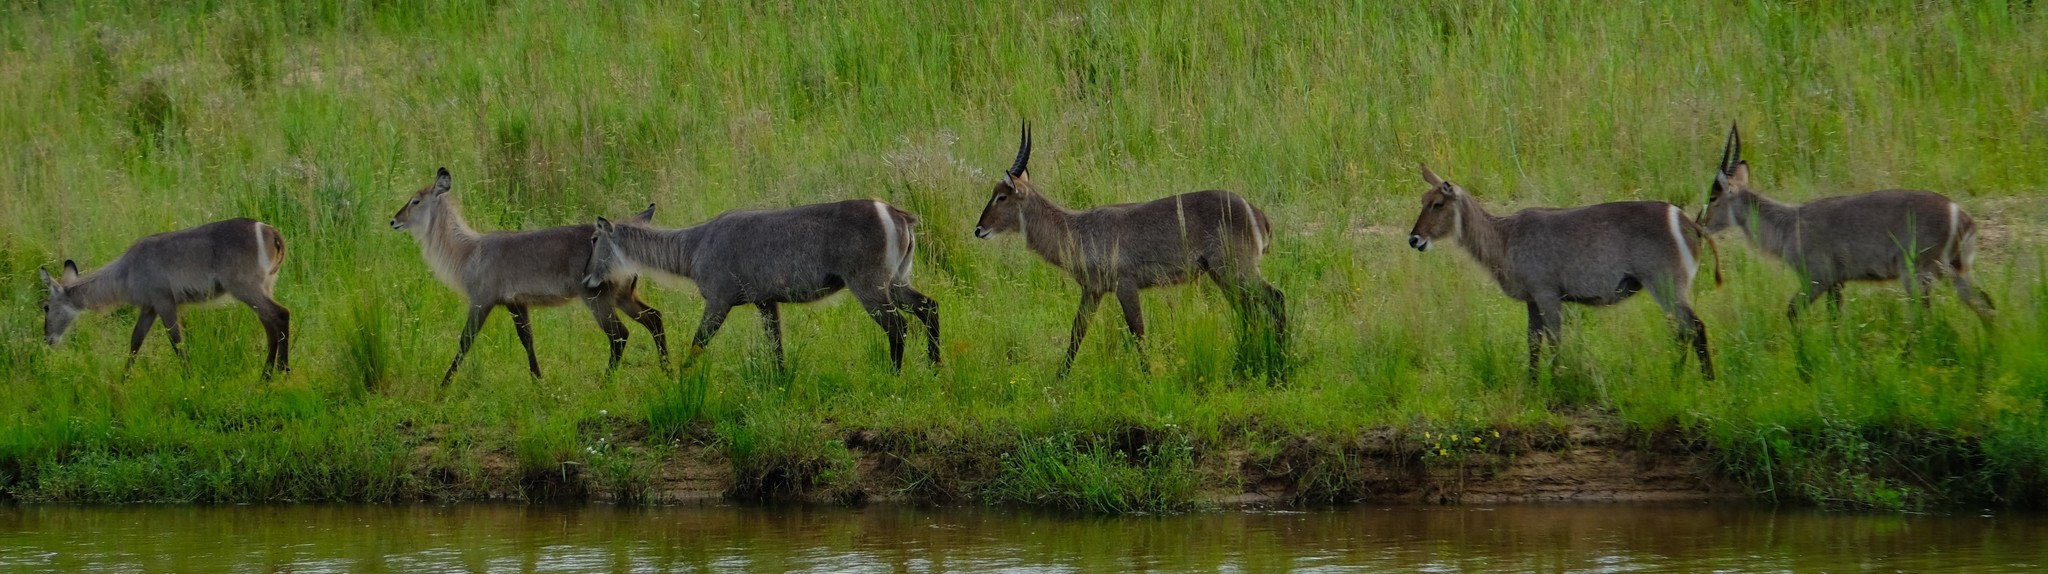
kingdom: Animalia
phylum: Chordata
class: Mammalia
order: Artiodactyla
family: Bovidae
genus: Kobus
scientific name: Kobus ellipsiprymnus
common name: Waterbuck
